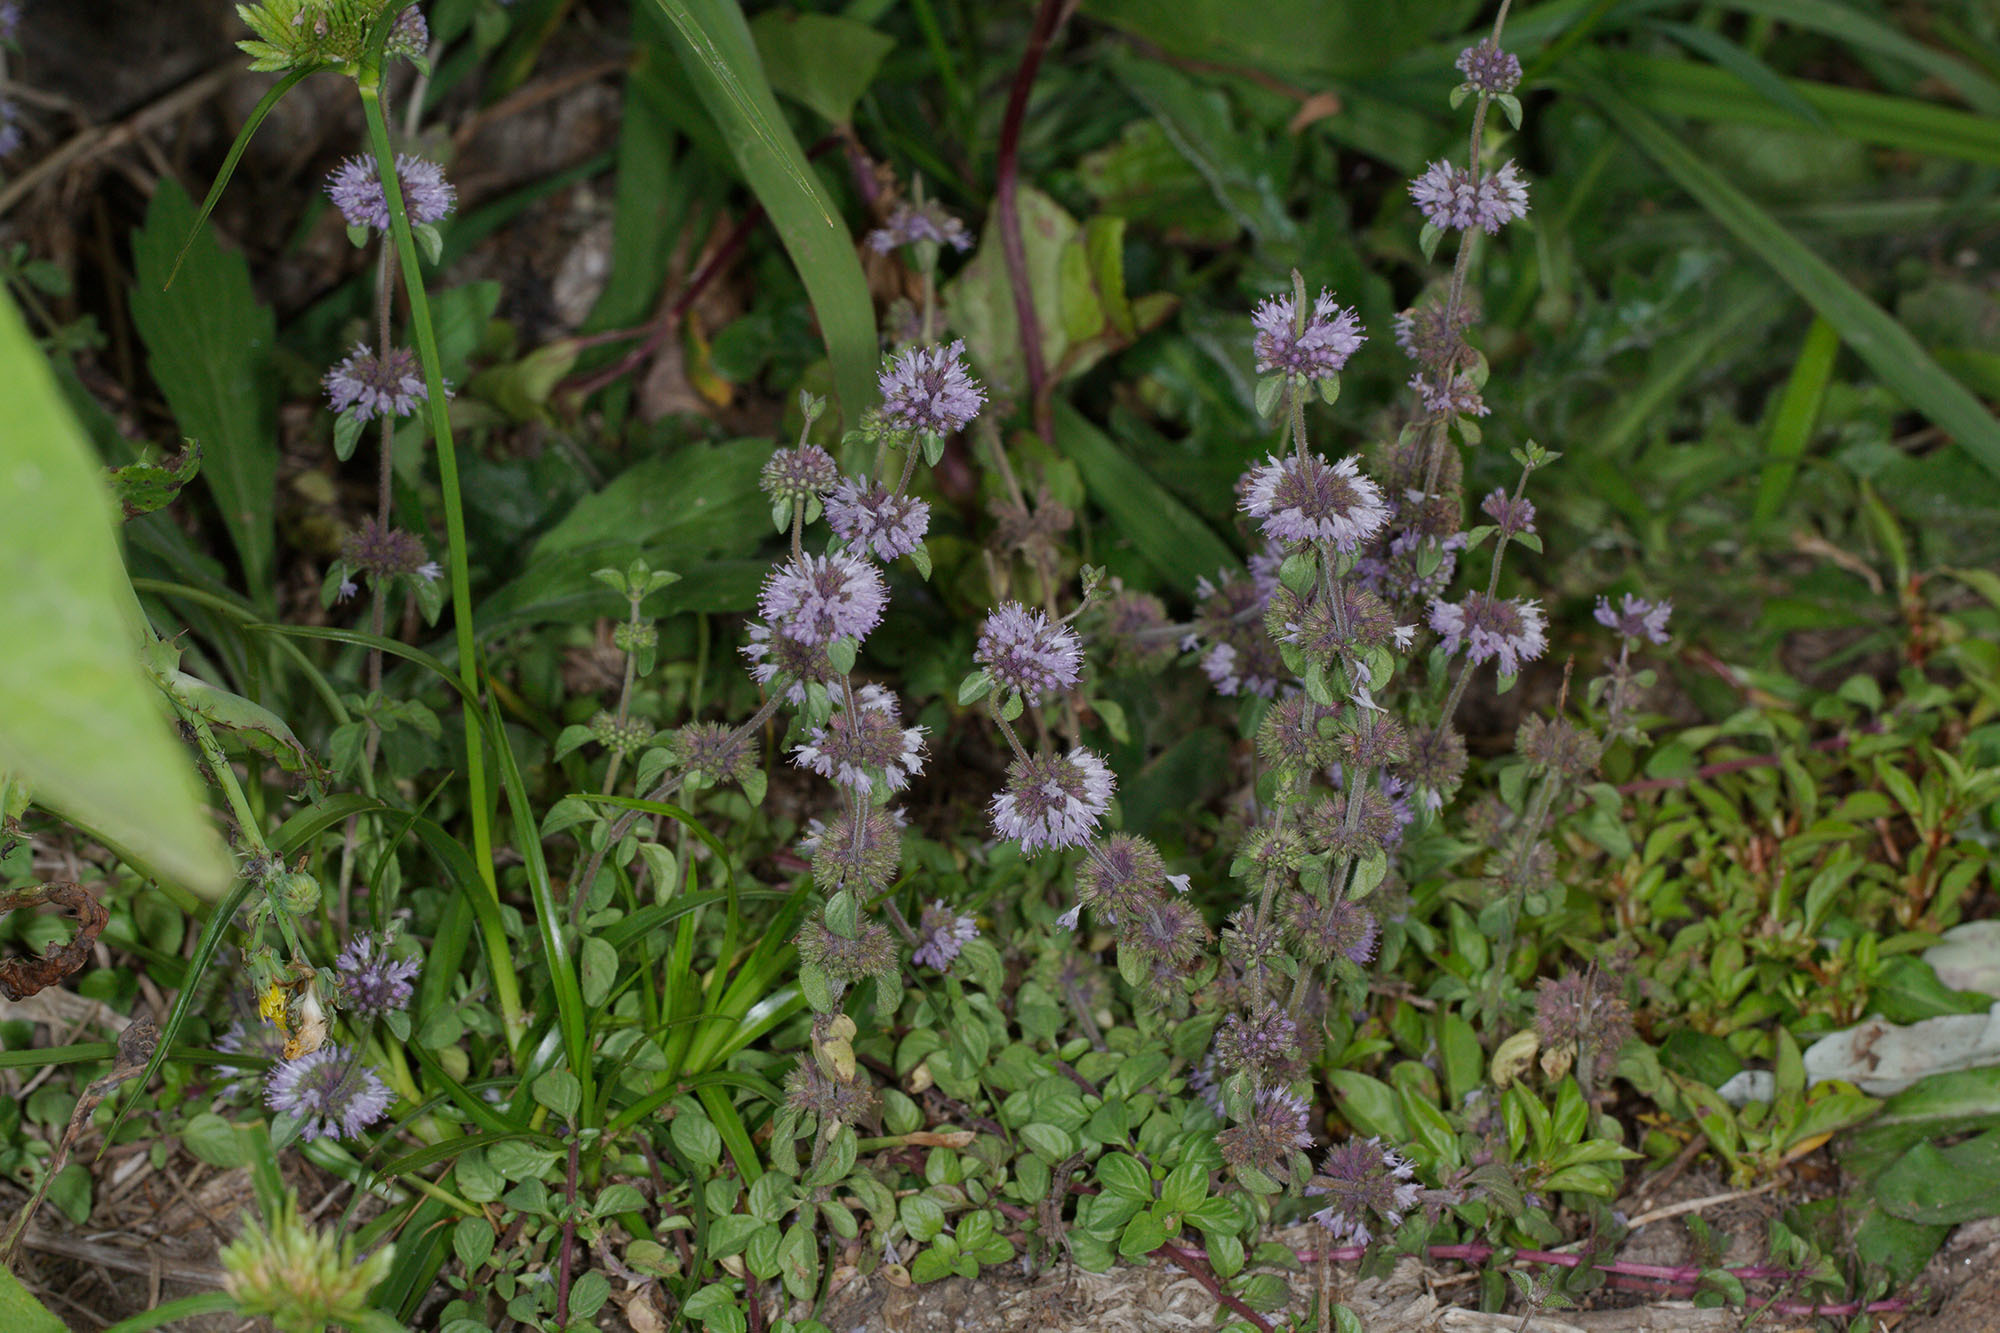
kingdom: Plantae
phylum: Tracheophyta
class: Magnoliopsida
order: Lamiales
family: Lamiaceae
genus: Mentha
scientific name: Mentha pulegium
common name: Pennyroyal
